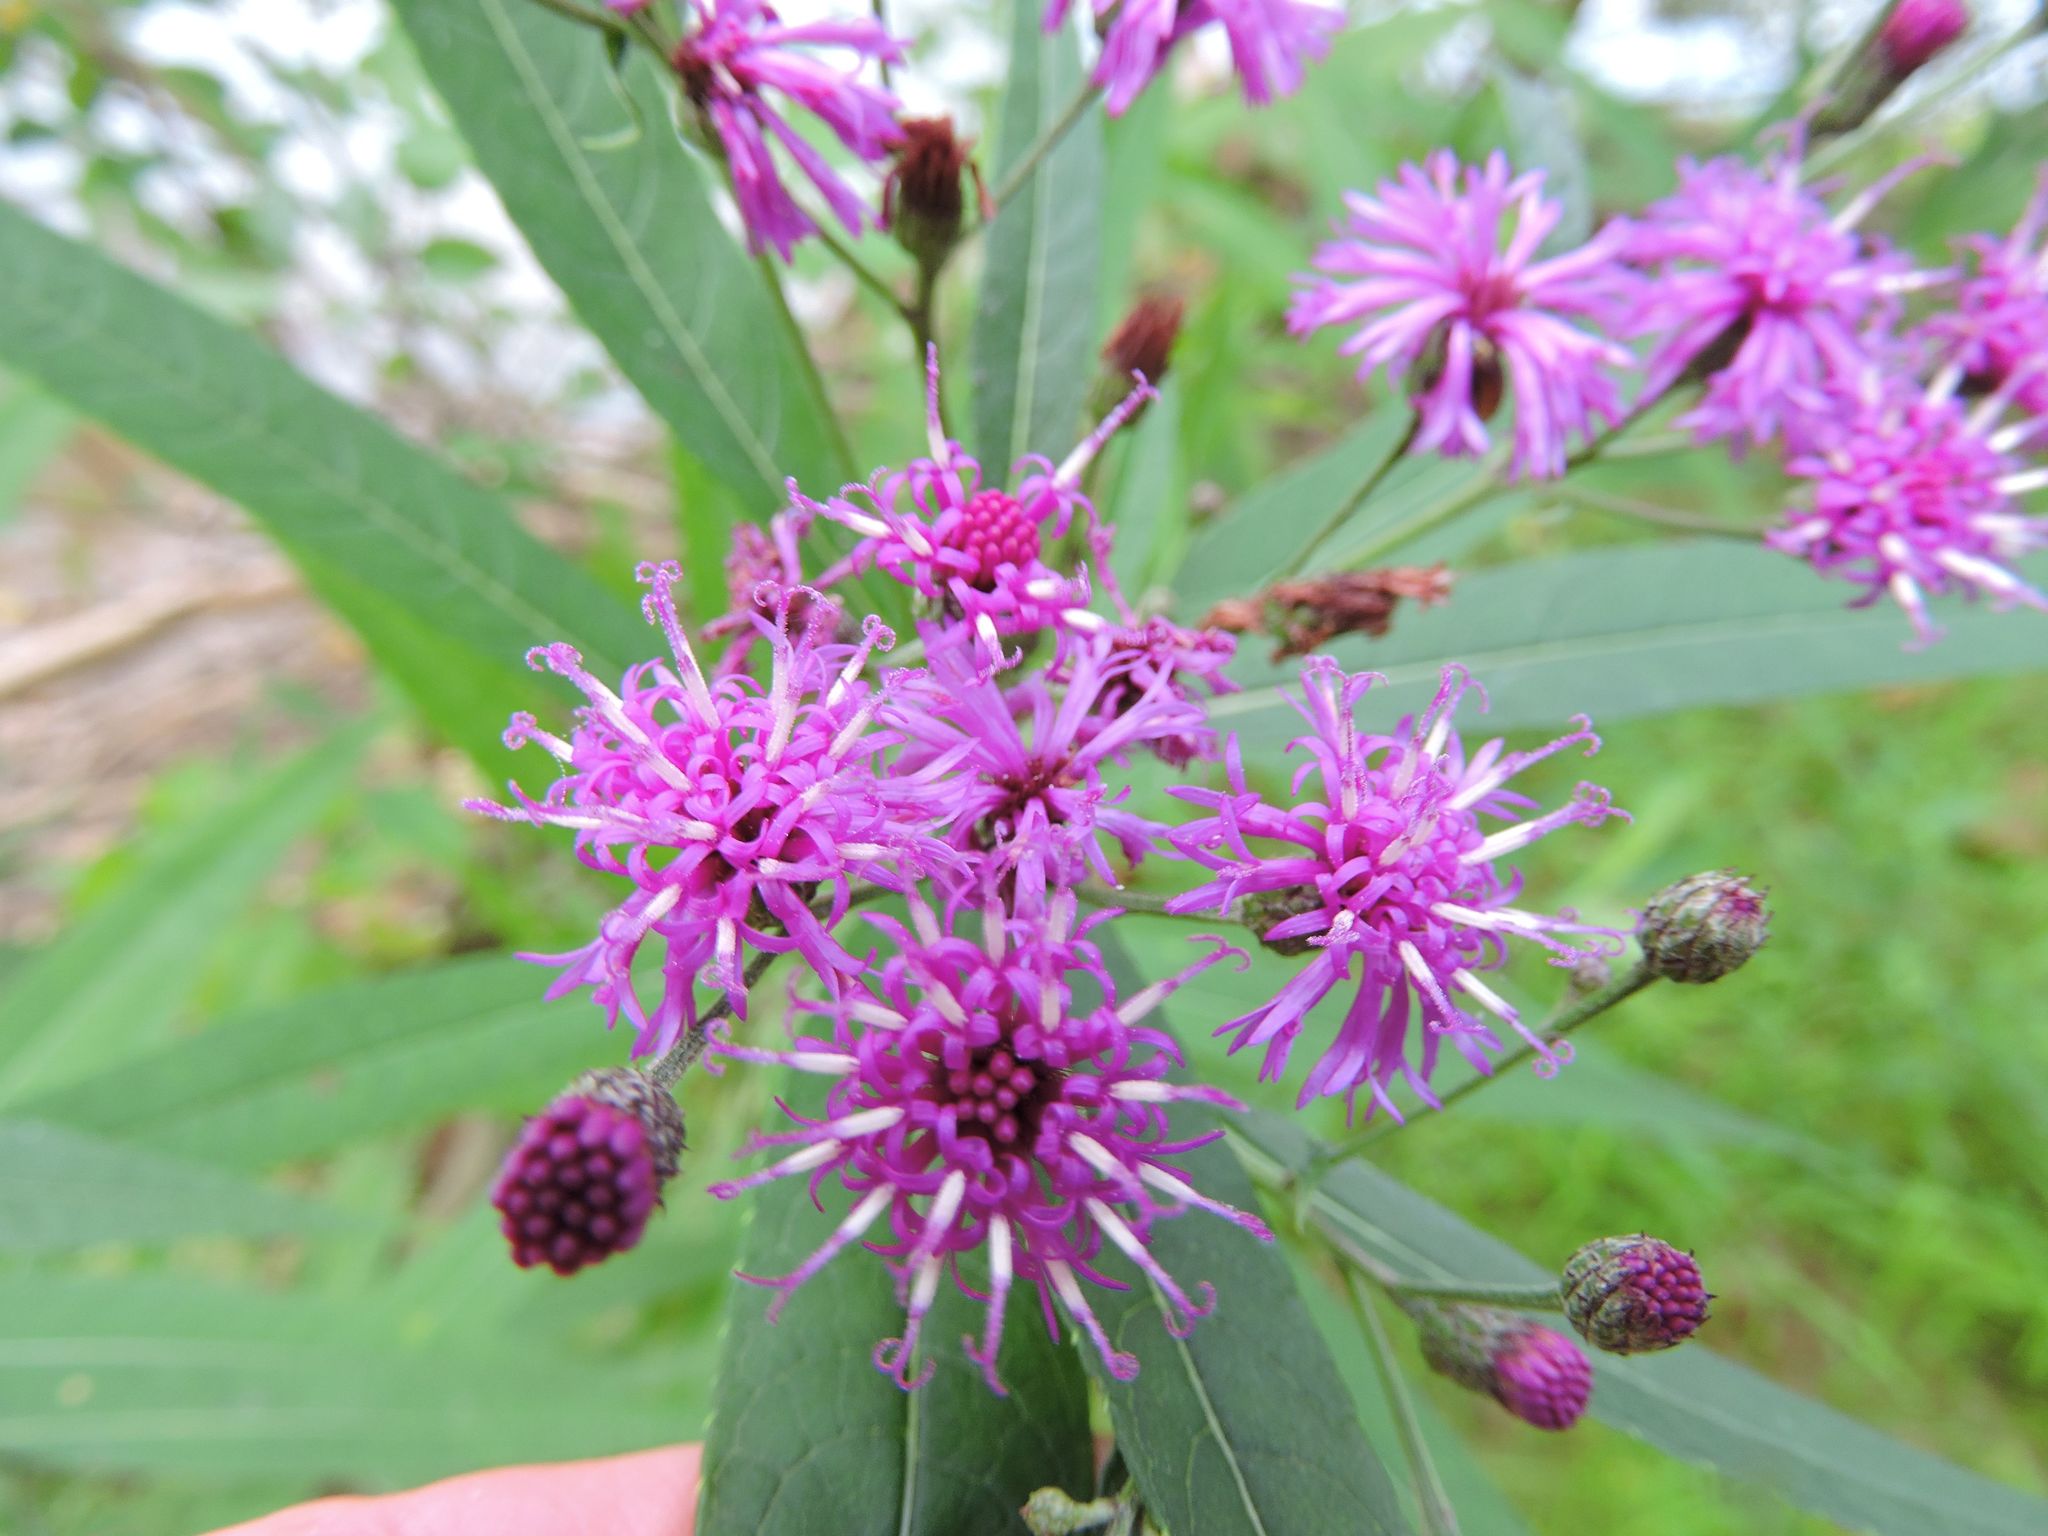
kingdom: Plantae
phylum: Tracheophyta
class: Magnoliopsida
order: Asterales
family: Asteraceae
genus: Vernonia
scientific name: Vernonia noveboracensis
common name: New york ironweed
